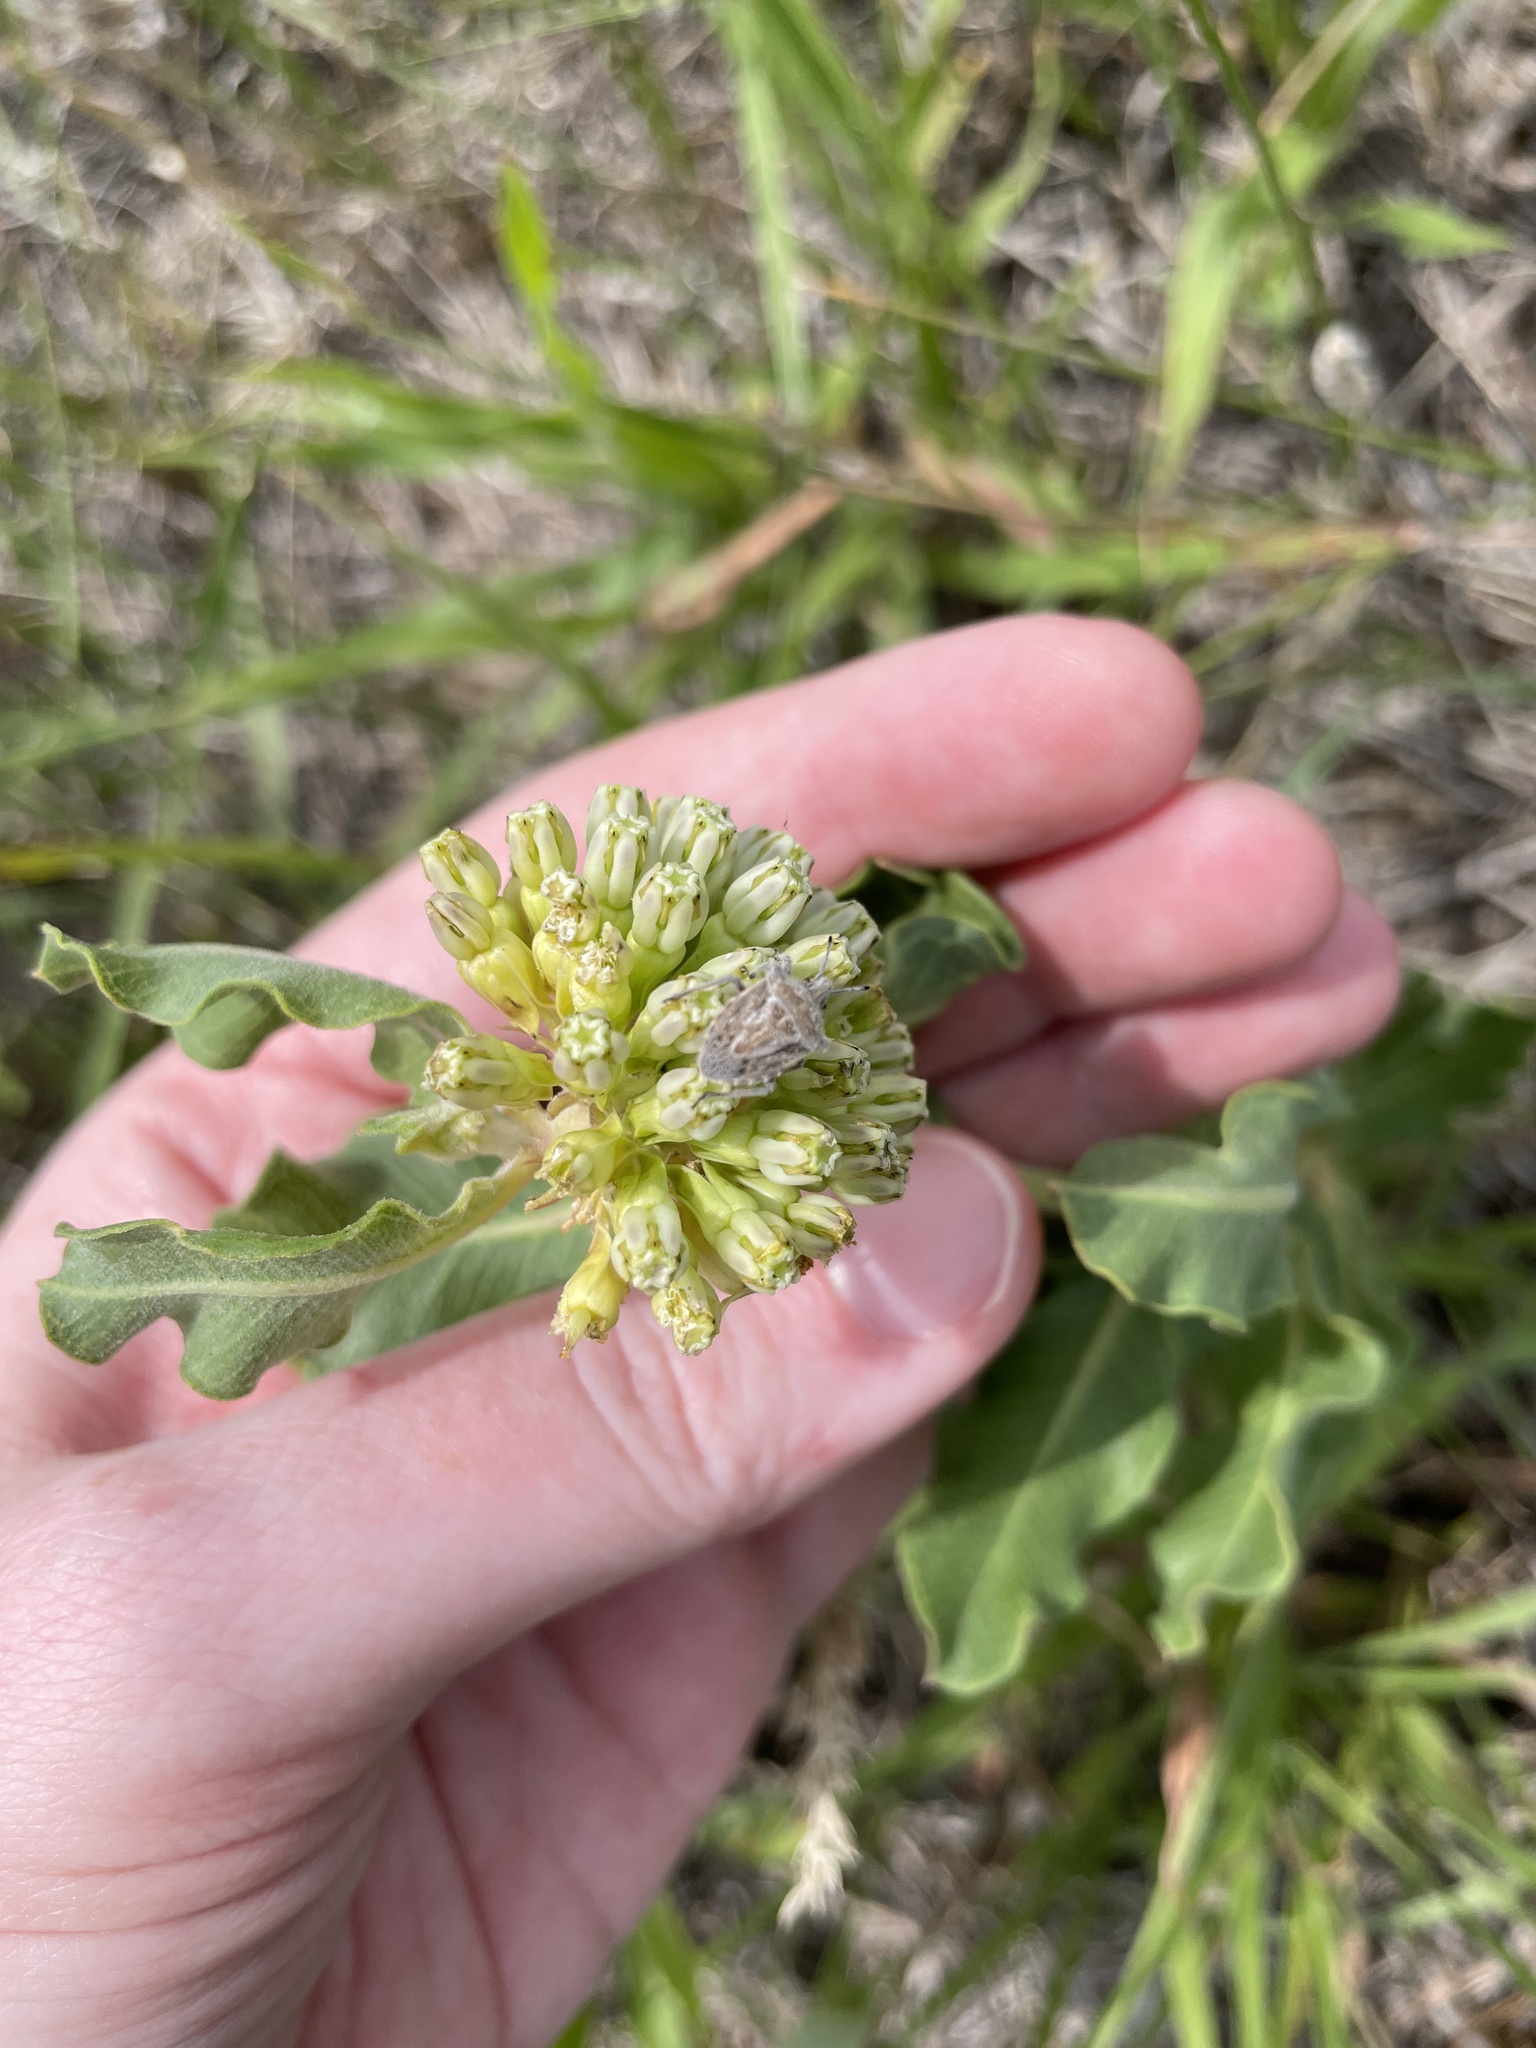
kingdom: Plantae
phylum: Tracheophyta
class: Magnoliopsida
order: Gentianales
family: Apocynaceae
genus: Asclepias
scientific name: Asclepias viridiflora
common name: Green comet milkweed
